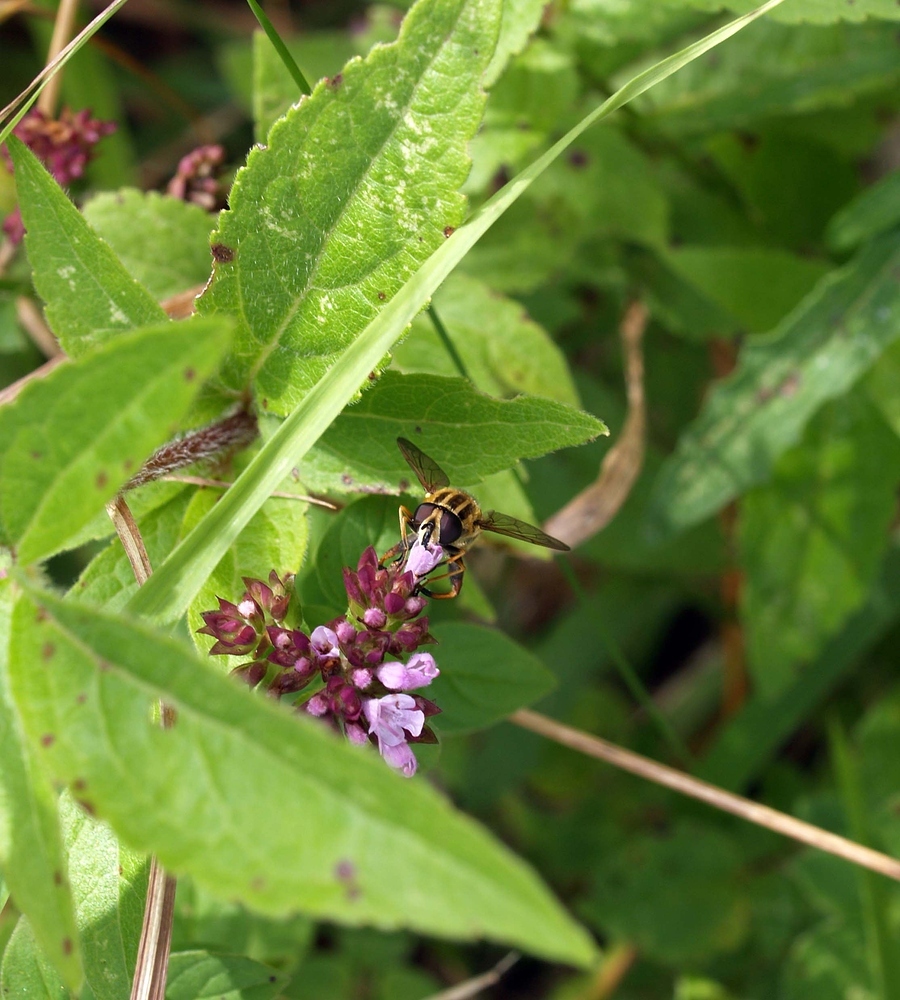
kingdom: Animalia
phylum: Arthropoda
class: Insecta
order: Diptera
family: Syrphidae
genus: Helophilus
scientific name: Helophilus pendulus
